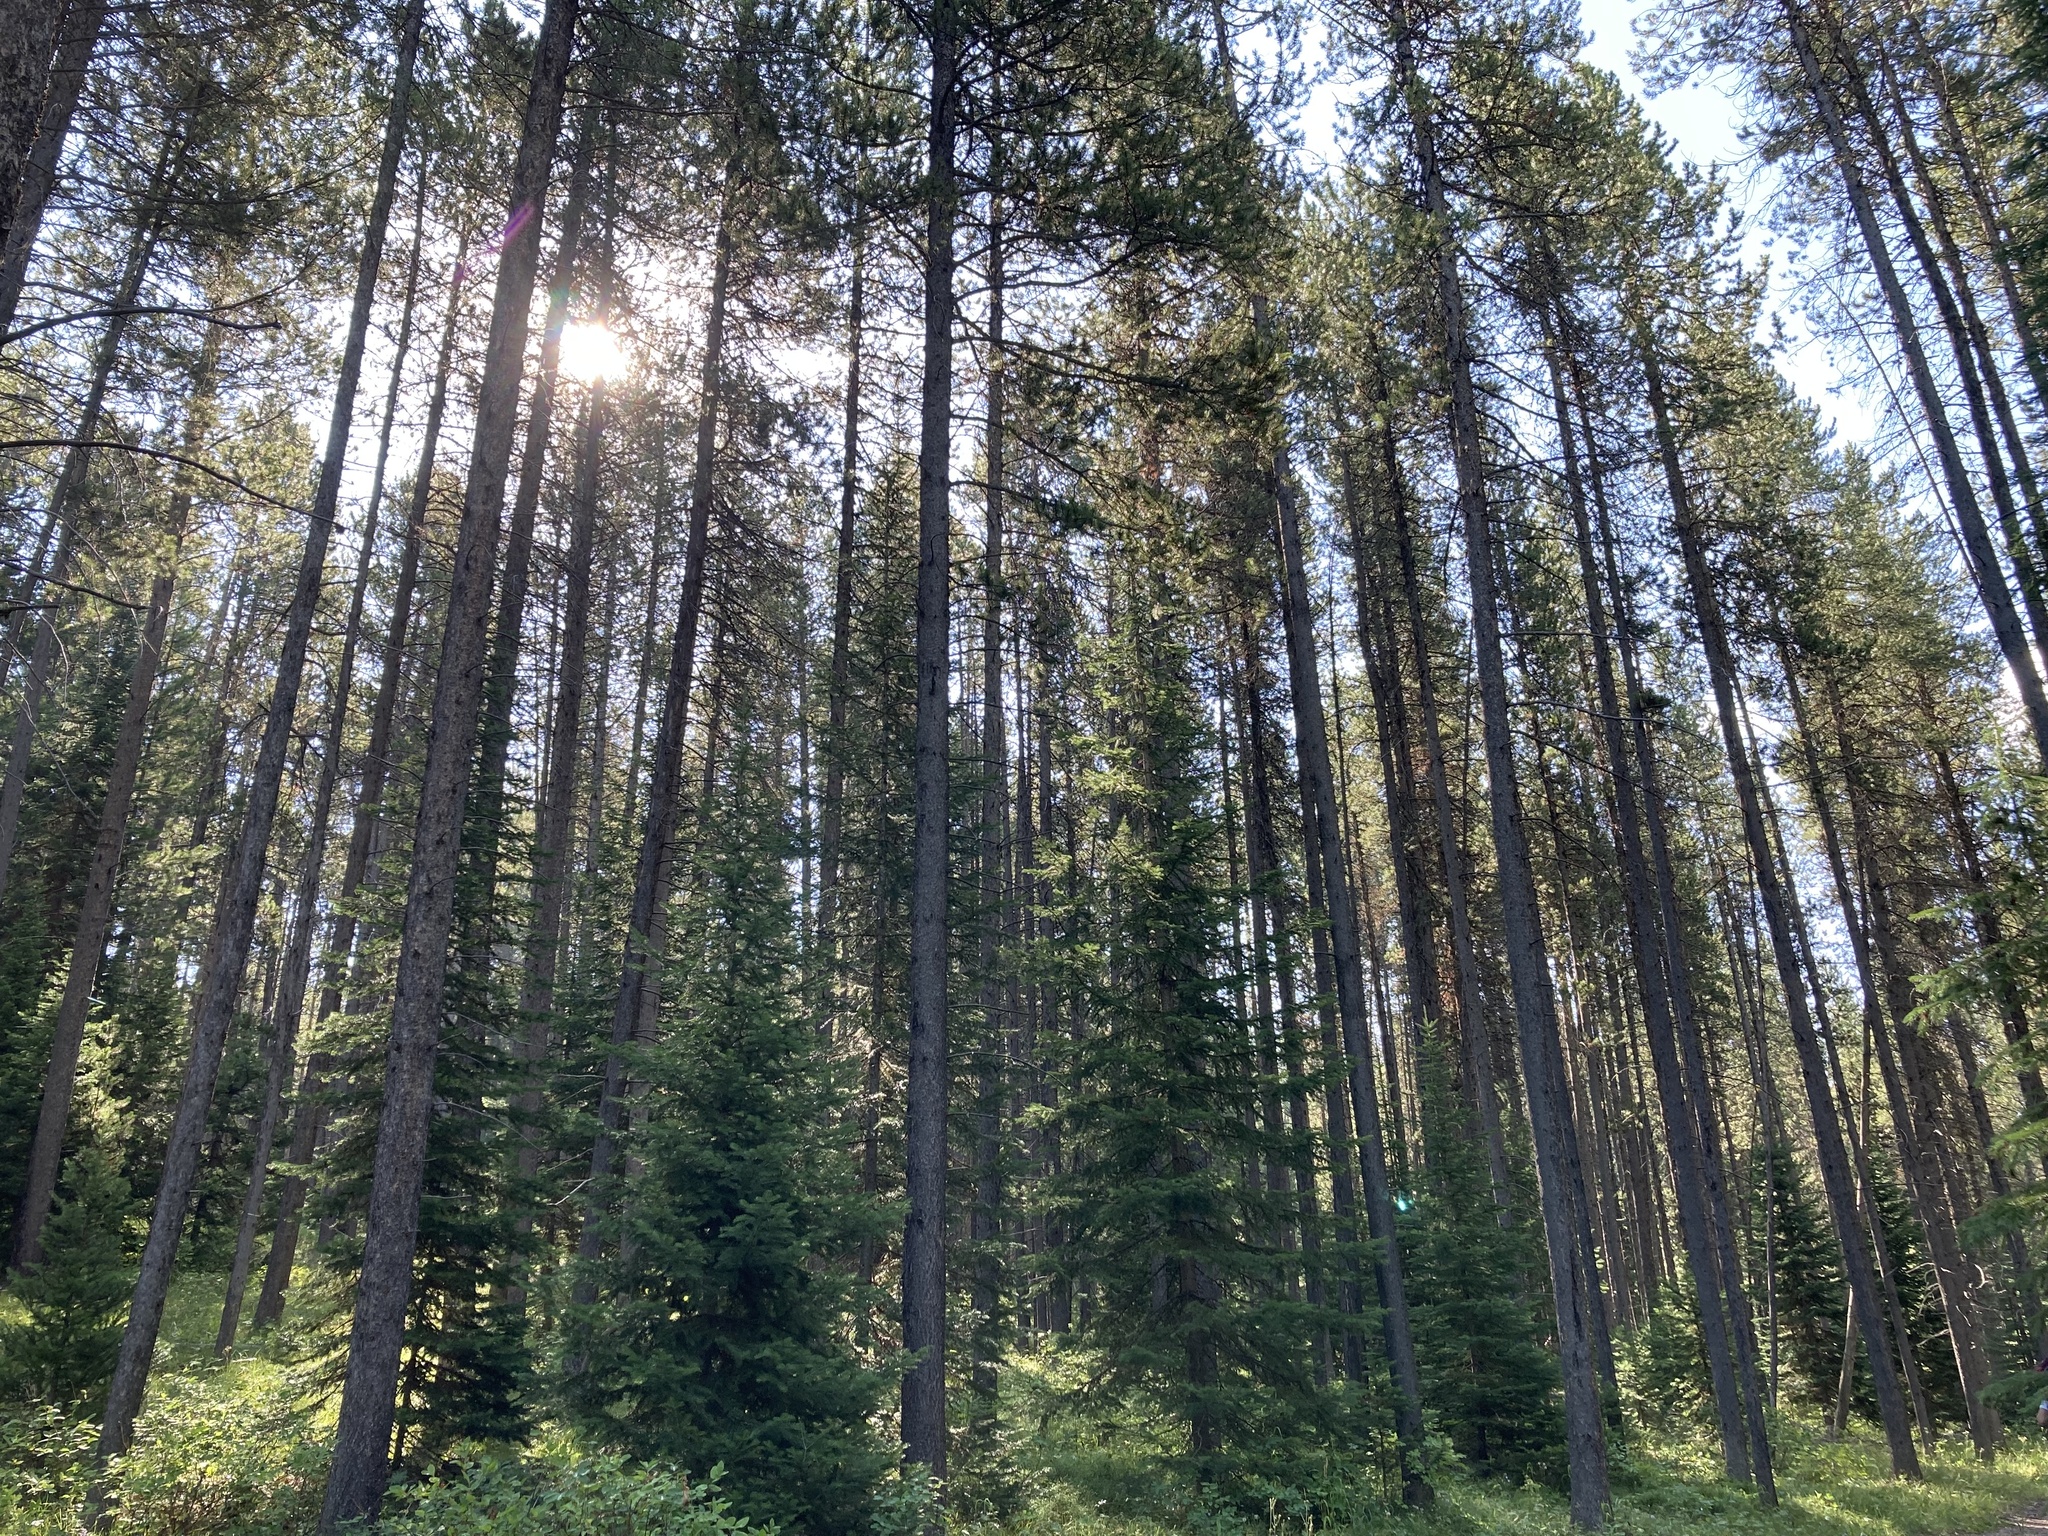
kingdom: Plantae
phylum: Tracheophyta
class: Pinopsida
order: Pinales
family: Pinaceae
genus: Pinus
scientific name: Pinus contorta
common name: Lodgepole pine
